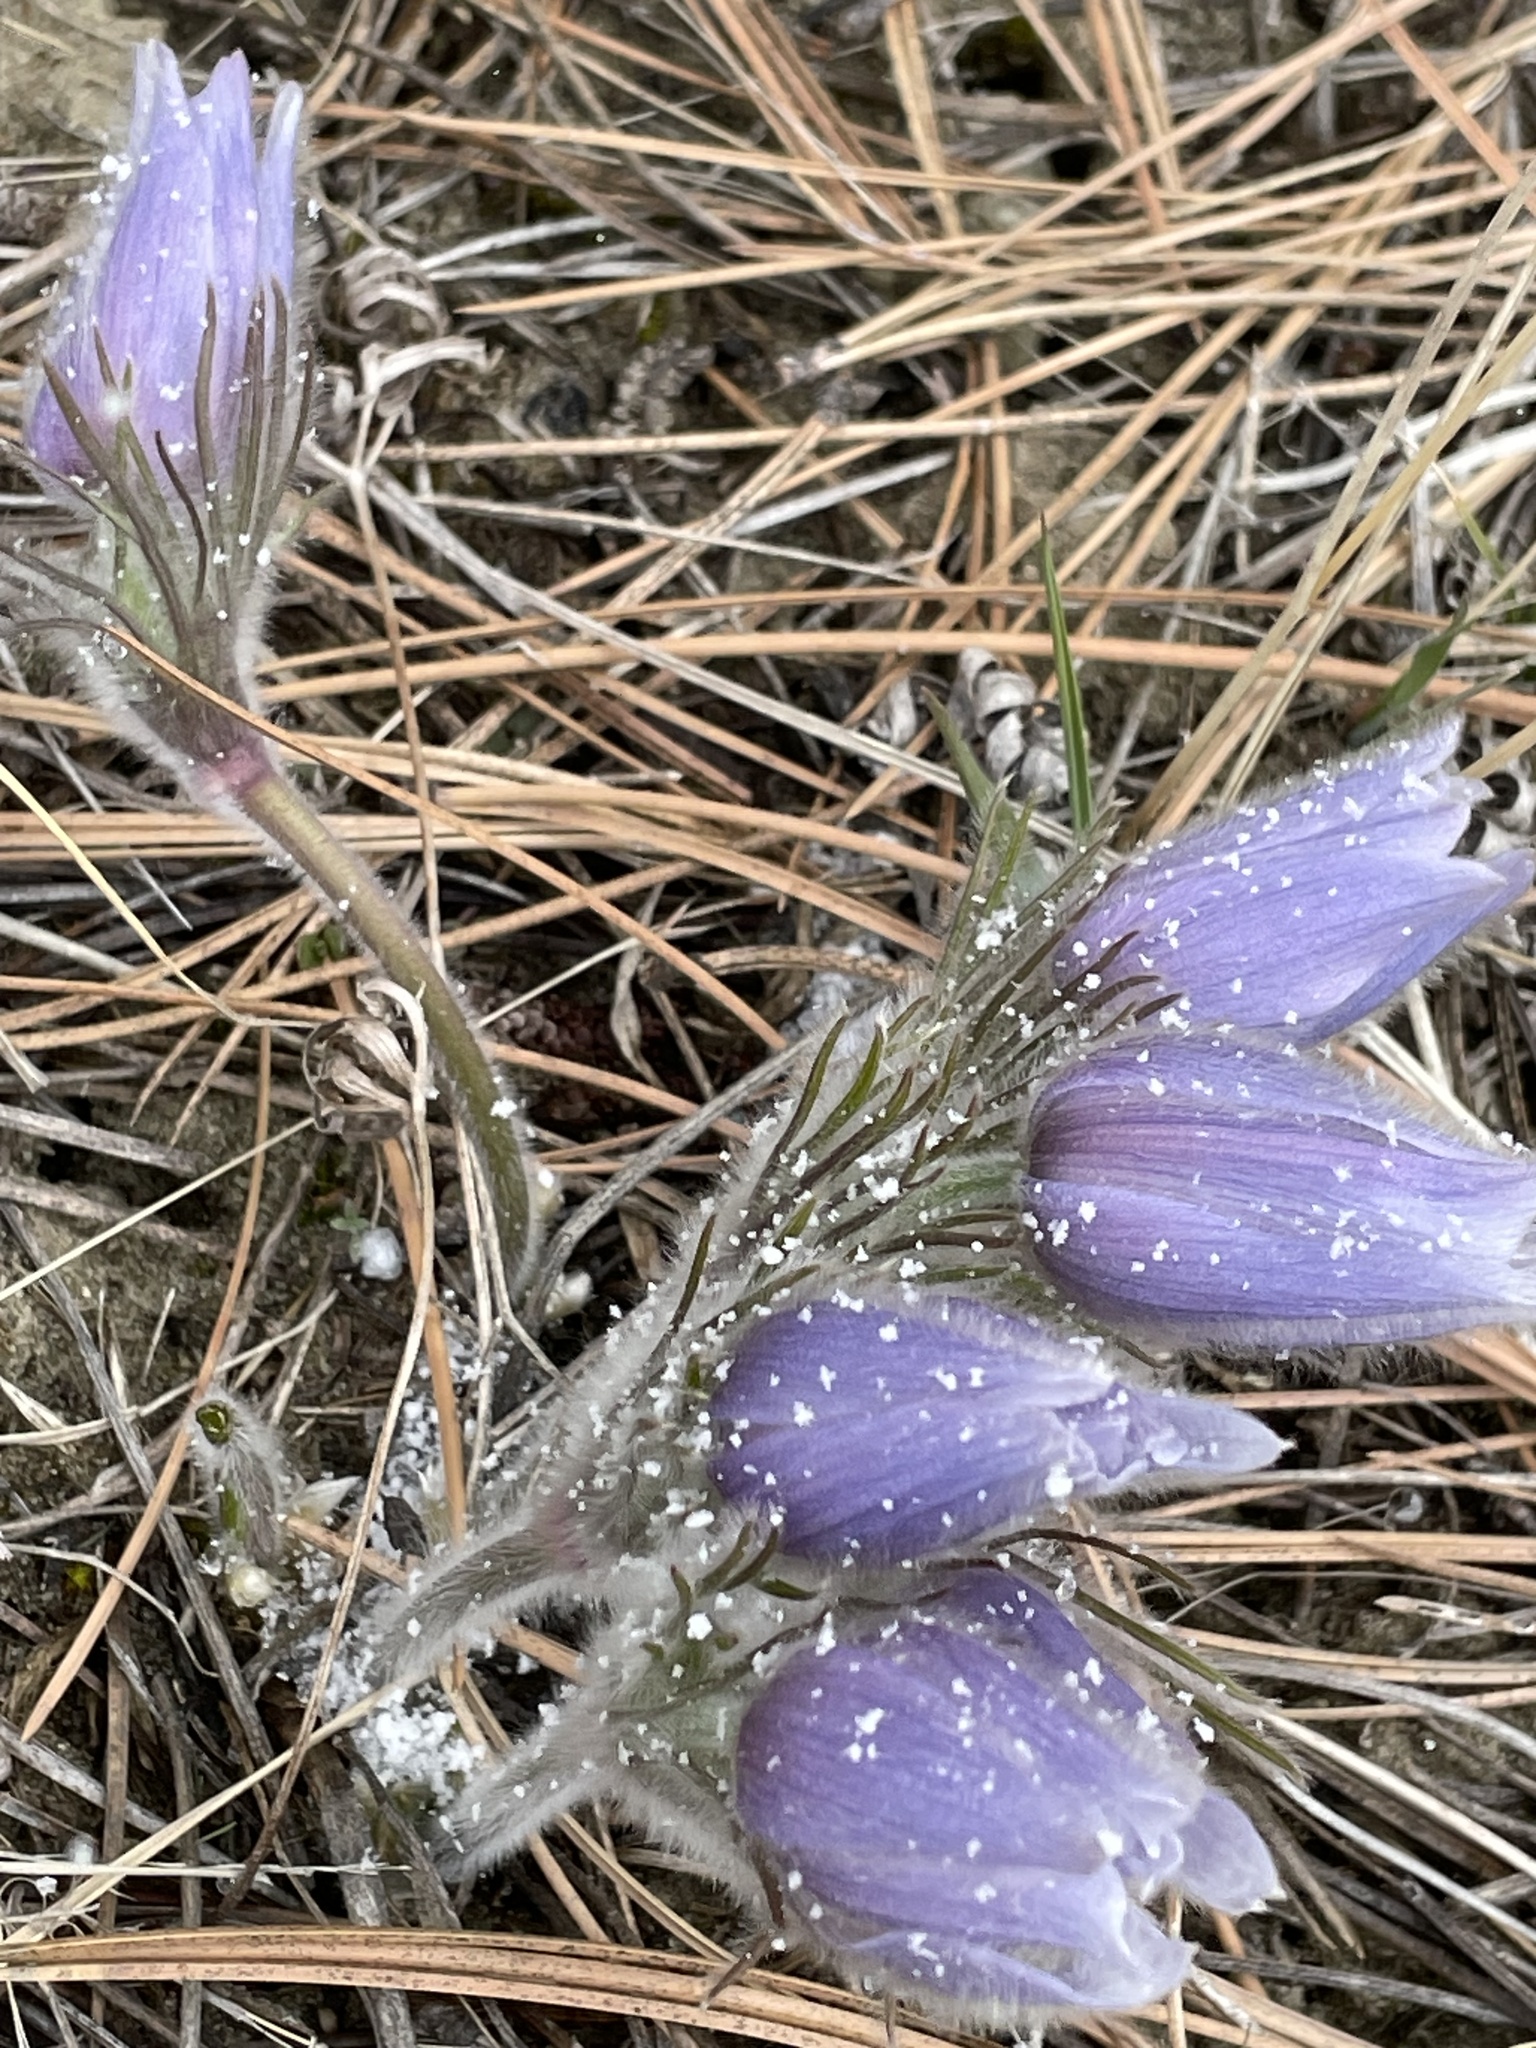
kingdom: Plantae
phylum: Tracheophyta
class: Magnoliopsida
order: Ranunculales
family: Ranunculaceae
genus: Pulsatilla
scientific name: Pulsatilla nuttalliana
